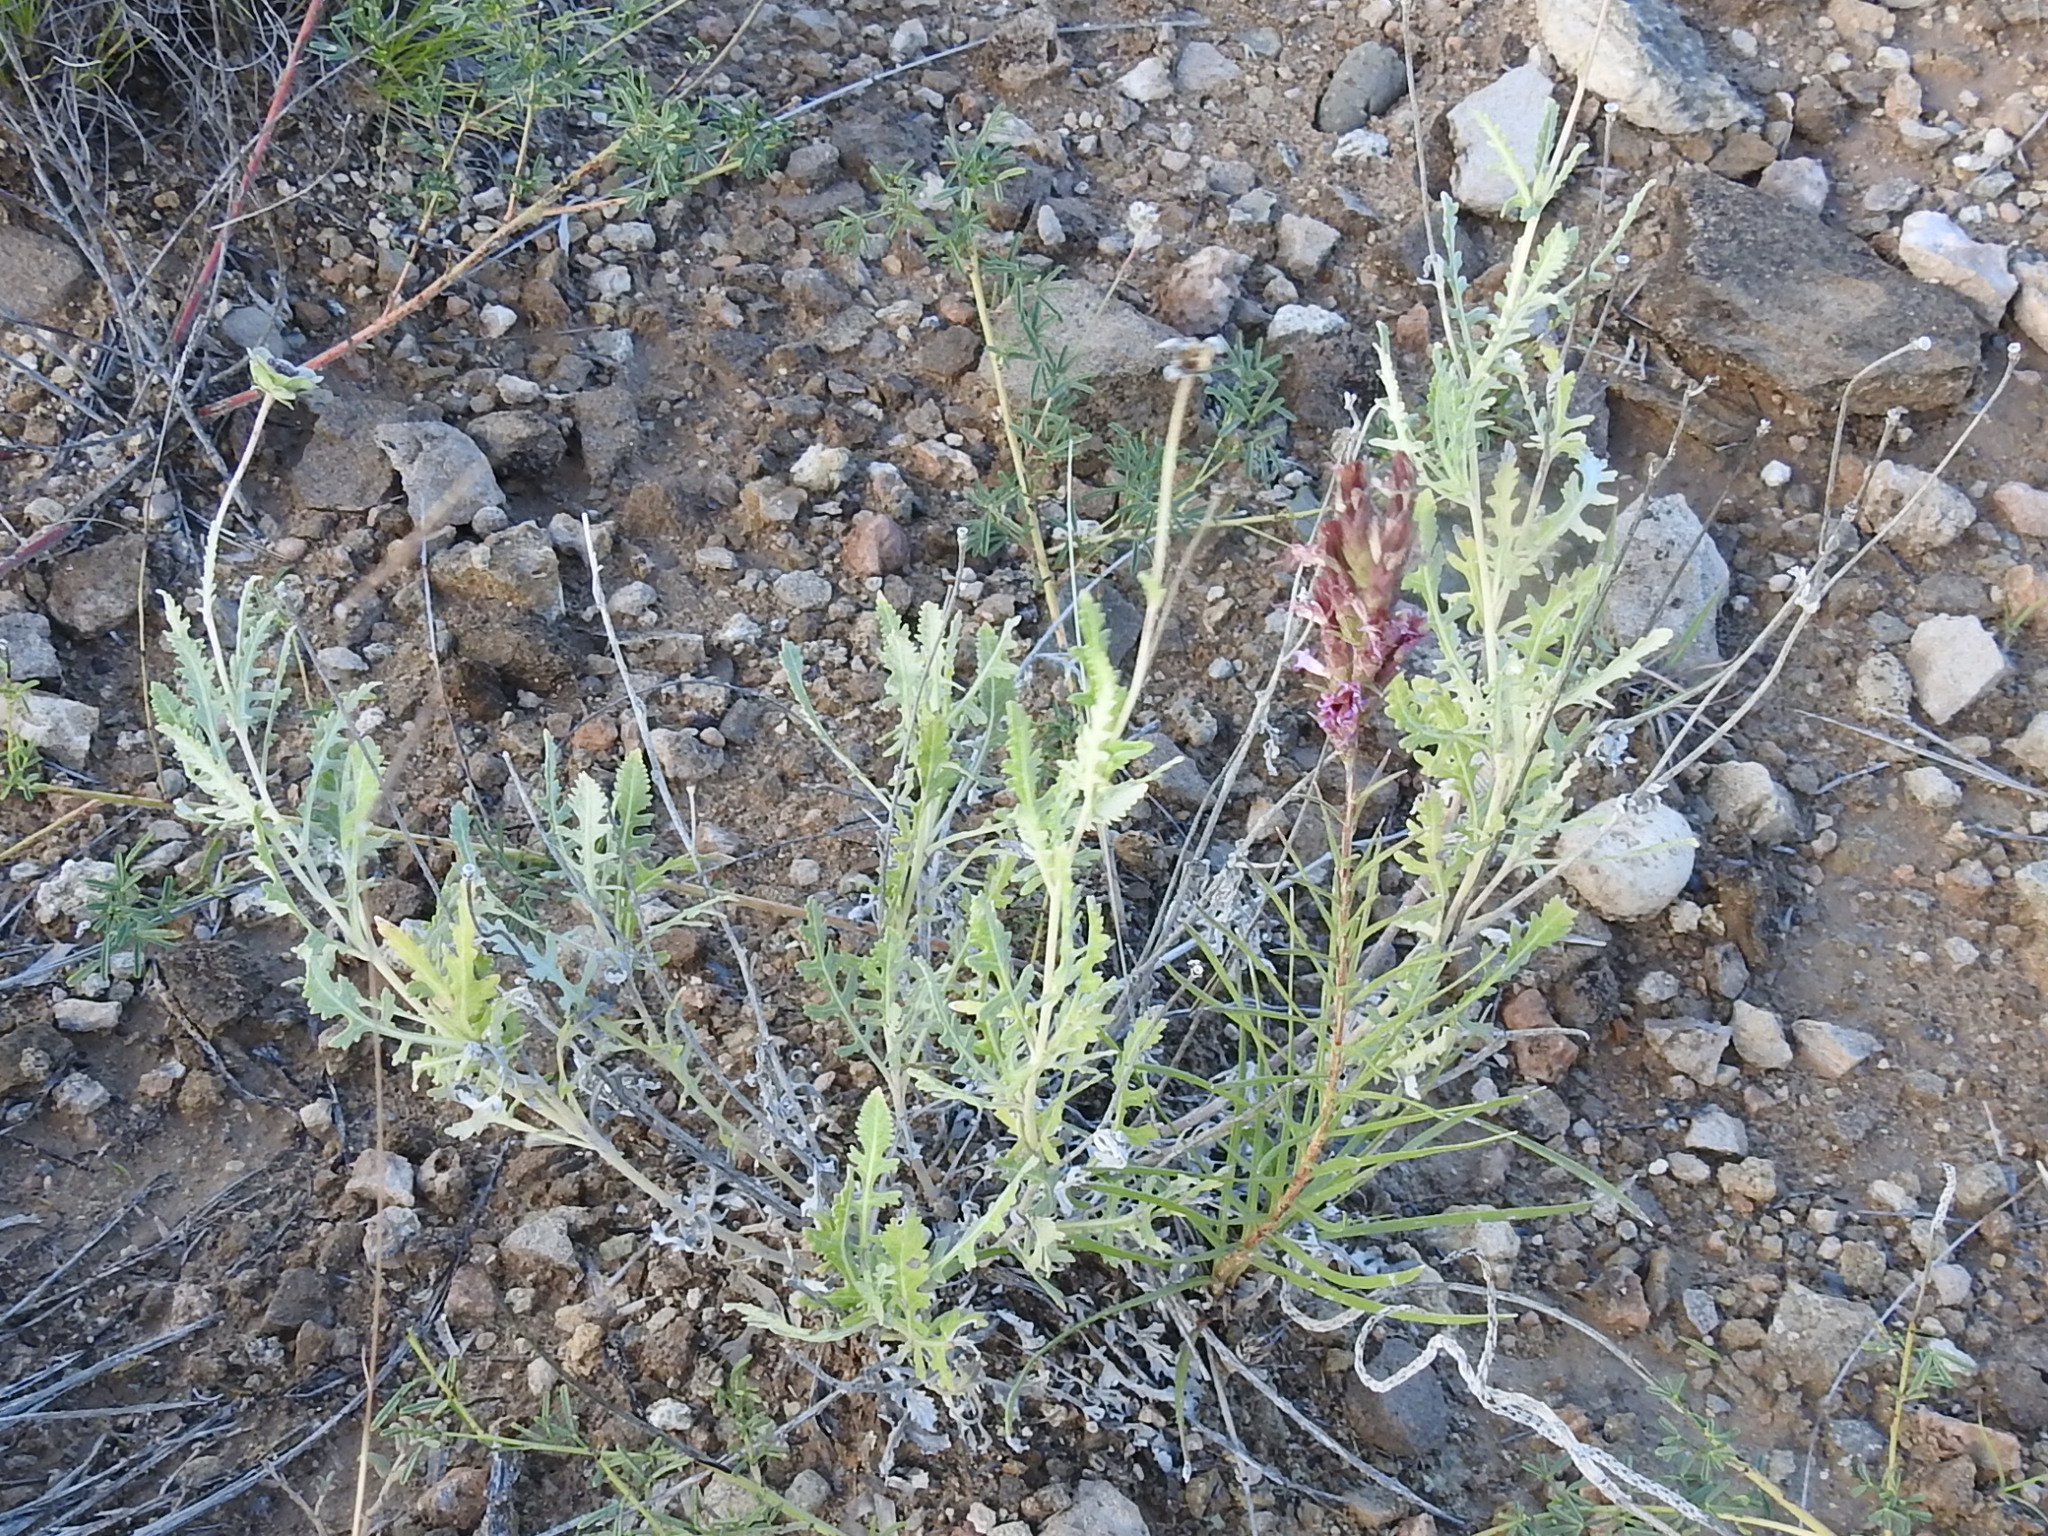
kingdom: Plantae
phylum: Tracheophyta
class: Magnoliopsida
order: Asterales
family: Asteraceae
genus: Berlandiera
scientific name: Berlandiera lyrata
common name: Chocolate-flower
